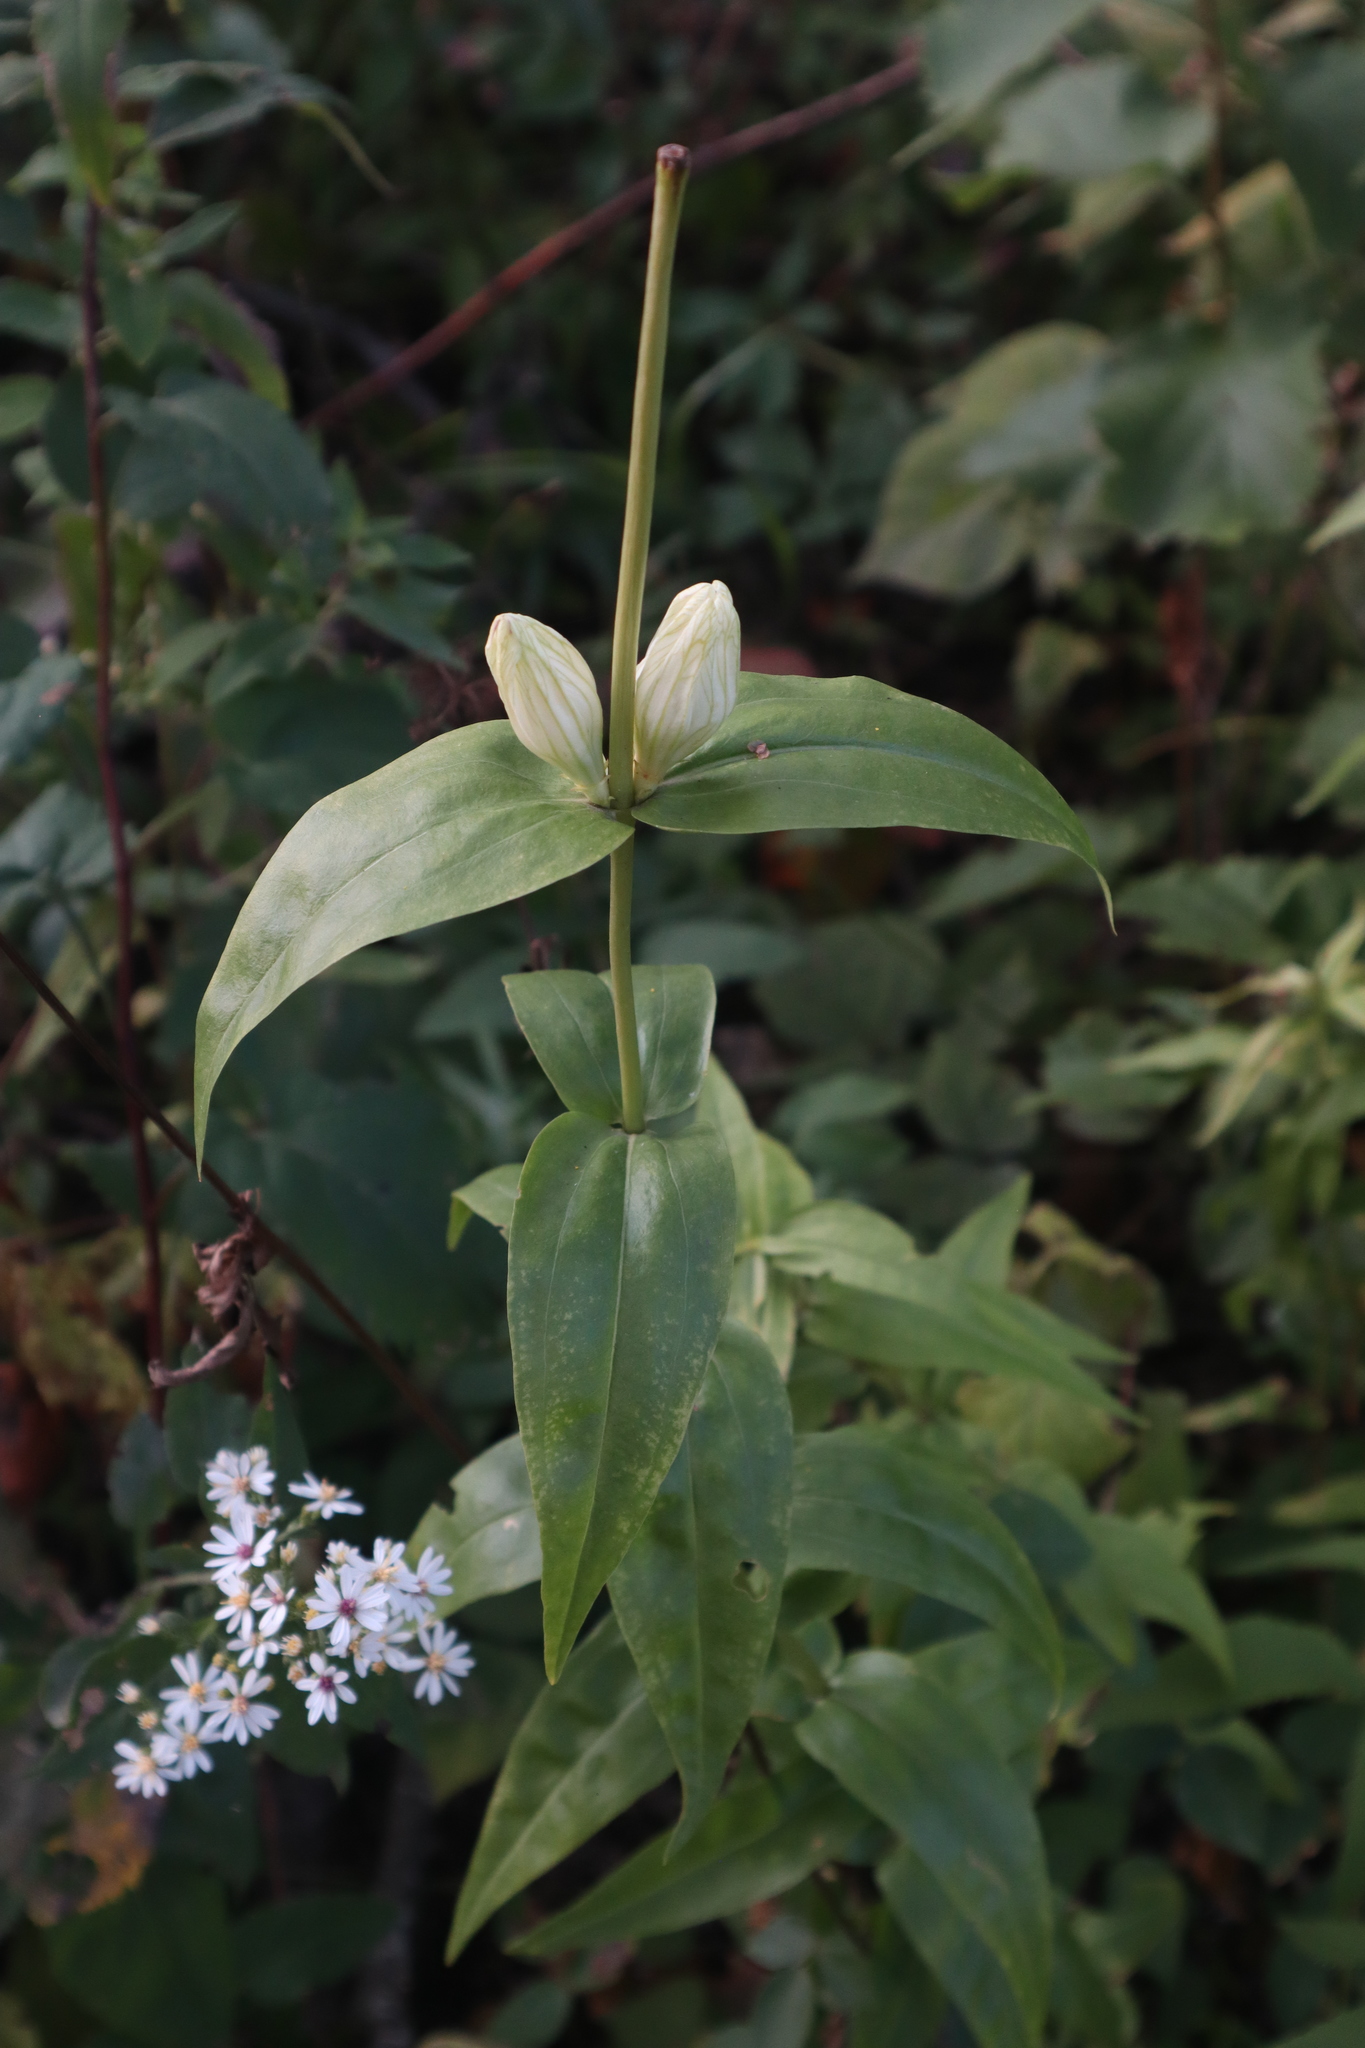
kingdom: Plantae
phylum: Tracheophyta
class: Magnoliopsida
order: Gentianales
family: Gentianaceae
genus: Gentiana
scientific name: Gentiana alba
